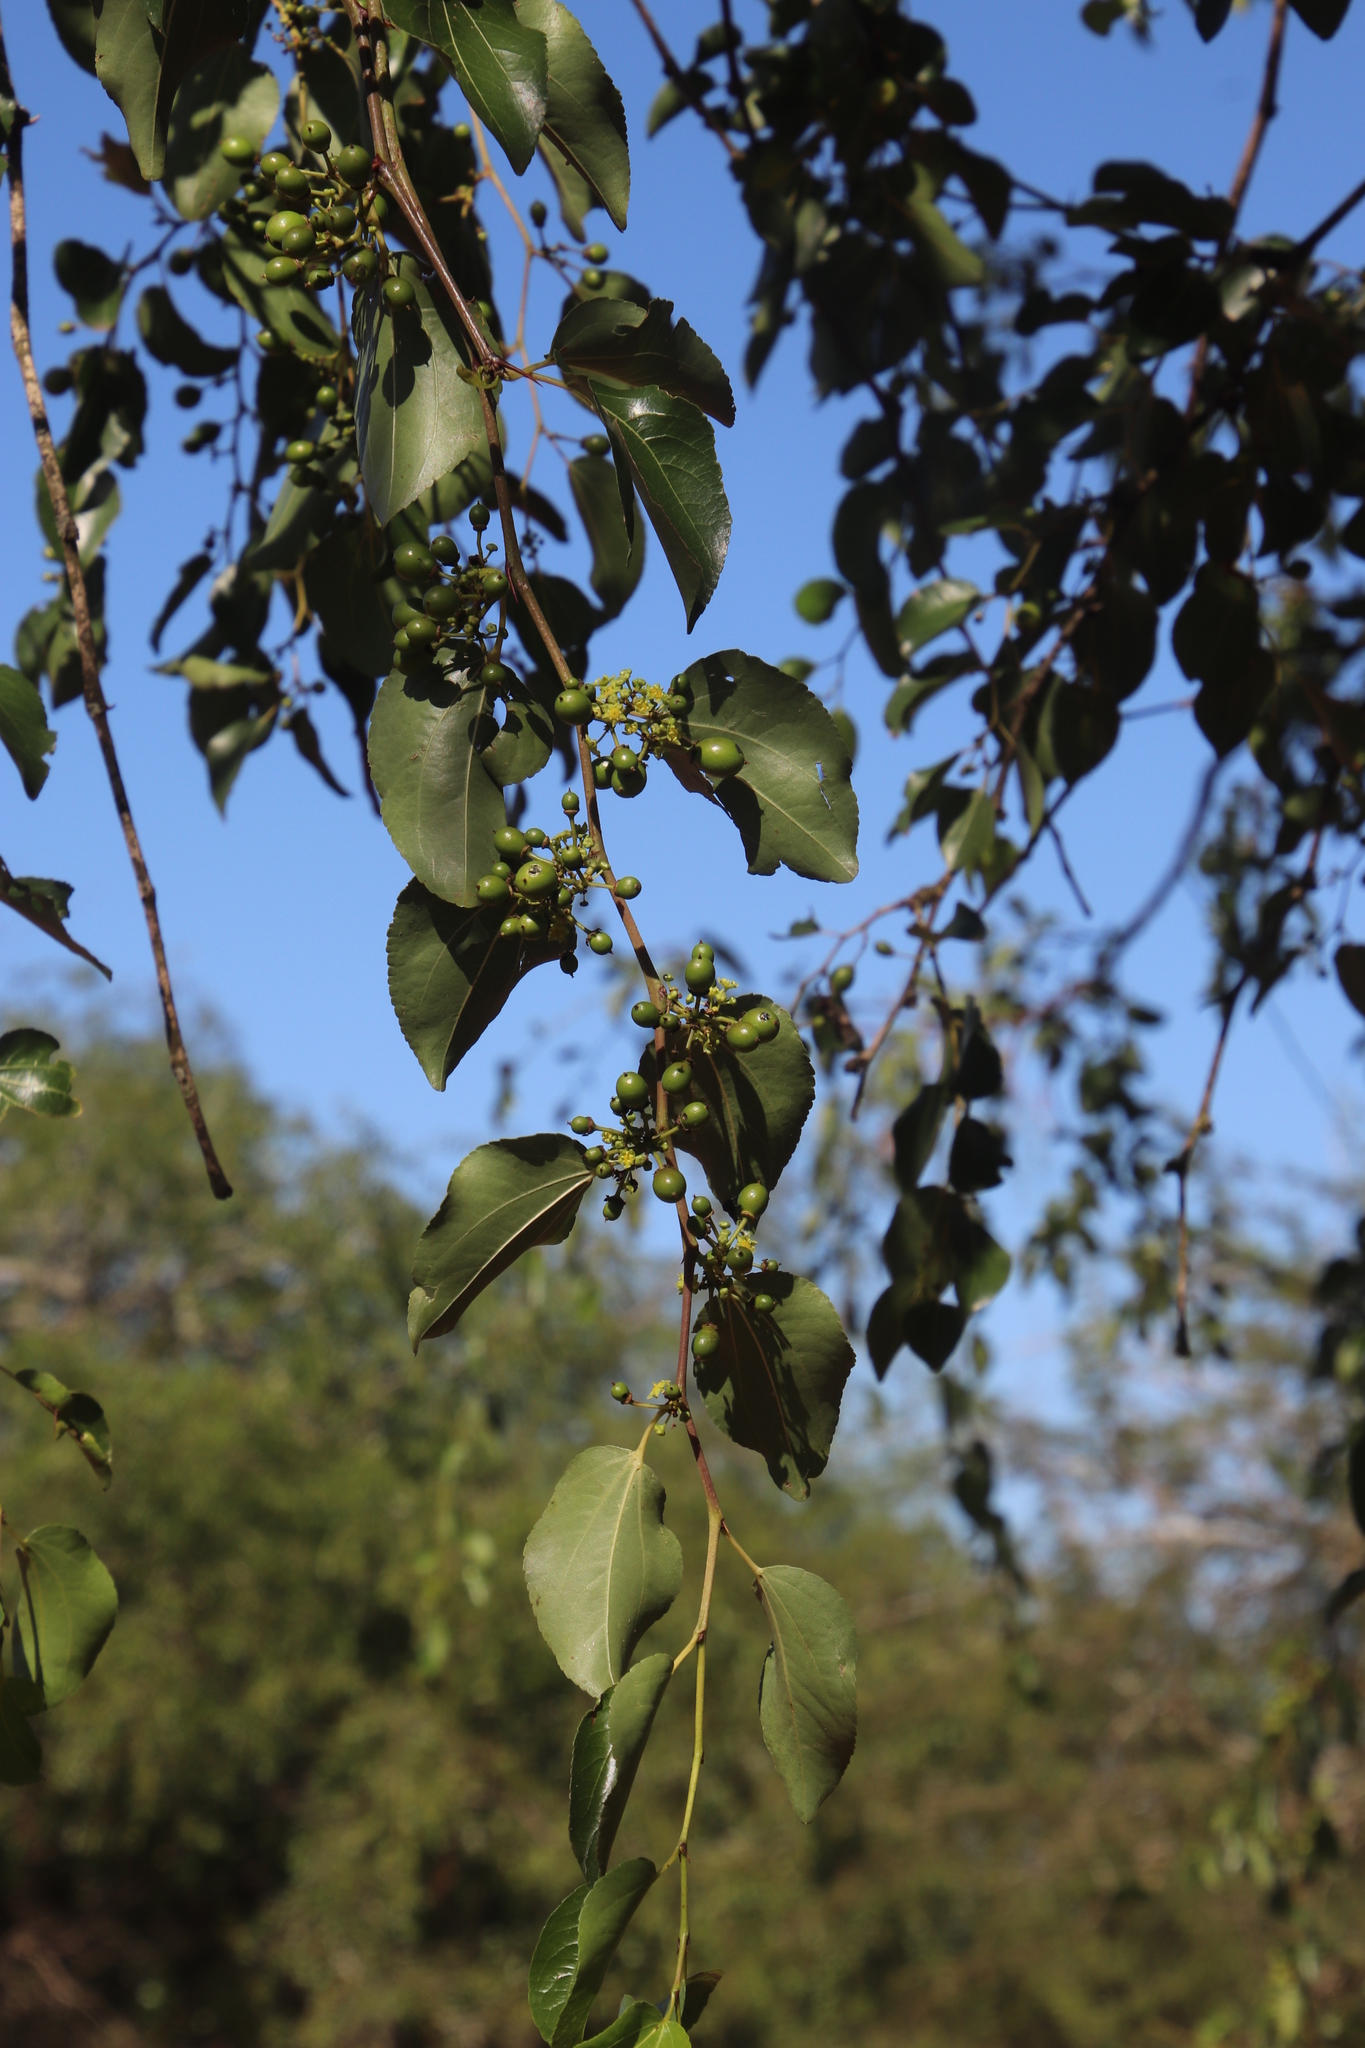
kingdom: Plantae
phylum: Tracheophyta
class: Magnoliopsida
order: Rosales
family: Rhamnaceae
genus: Ziziphus
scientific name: Ziziphus mucronata
